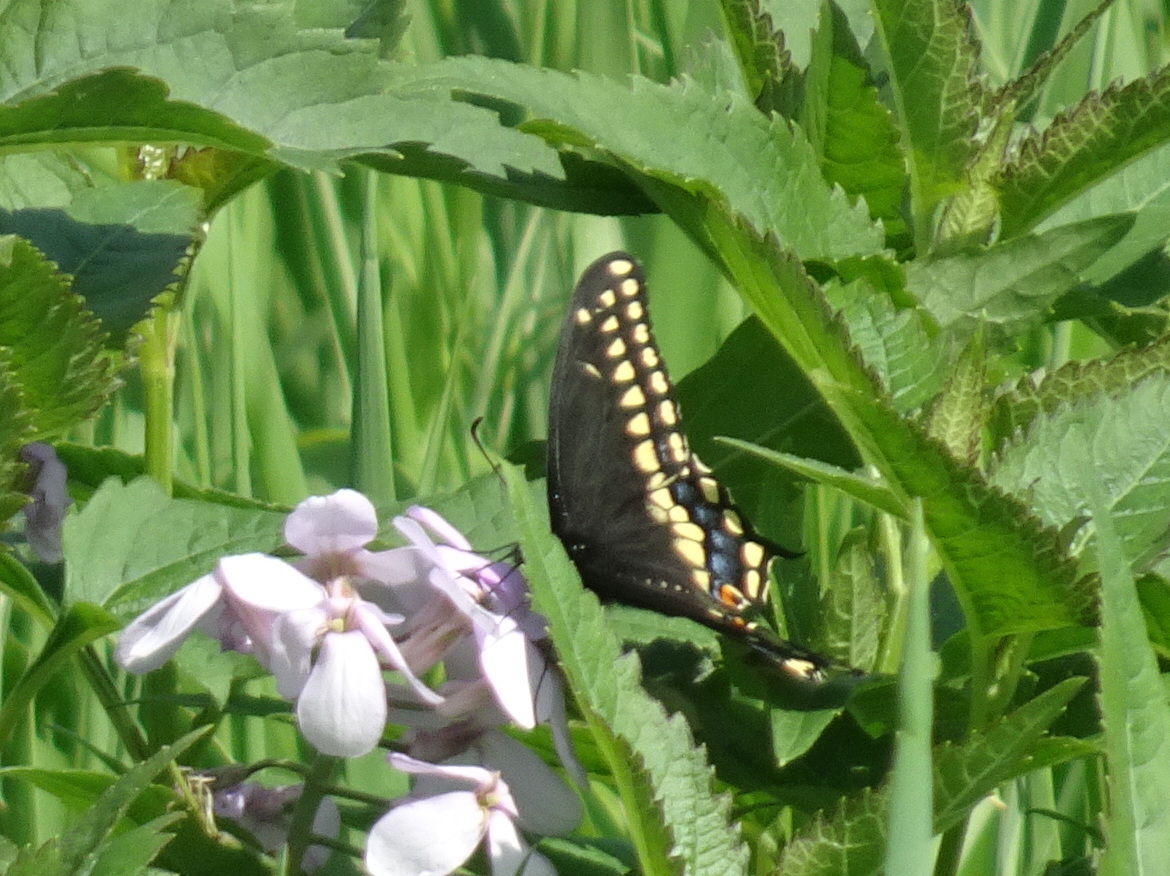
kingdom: Animalia
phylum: Arthropoda
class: Insecta
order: Lepidoptera
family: Papilionidae
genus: Papilio
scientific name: Papilio polyxenes
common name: Black swallowtail
